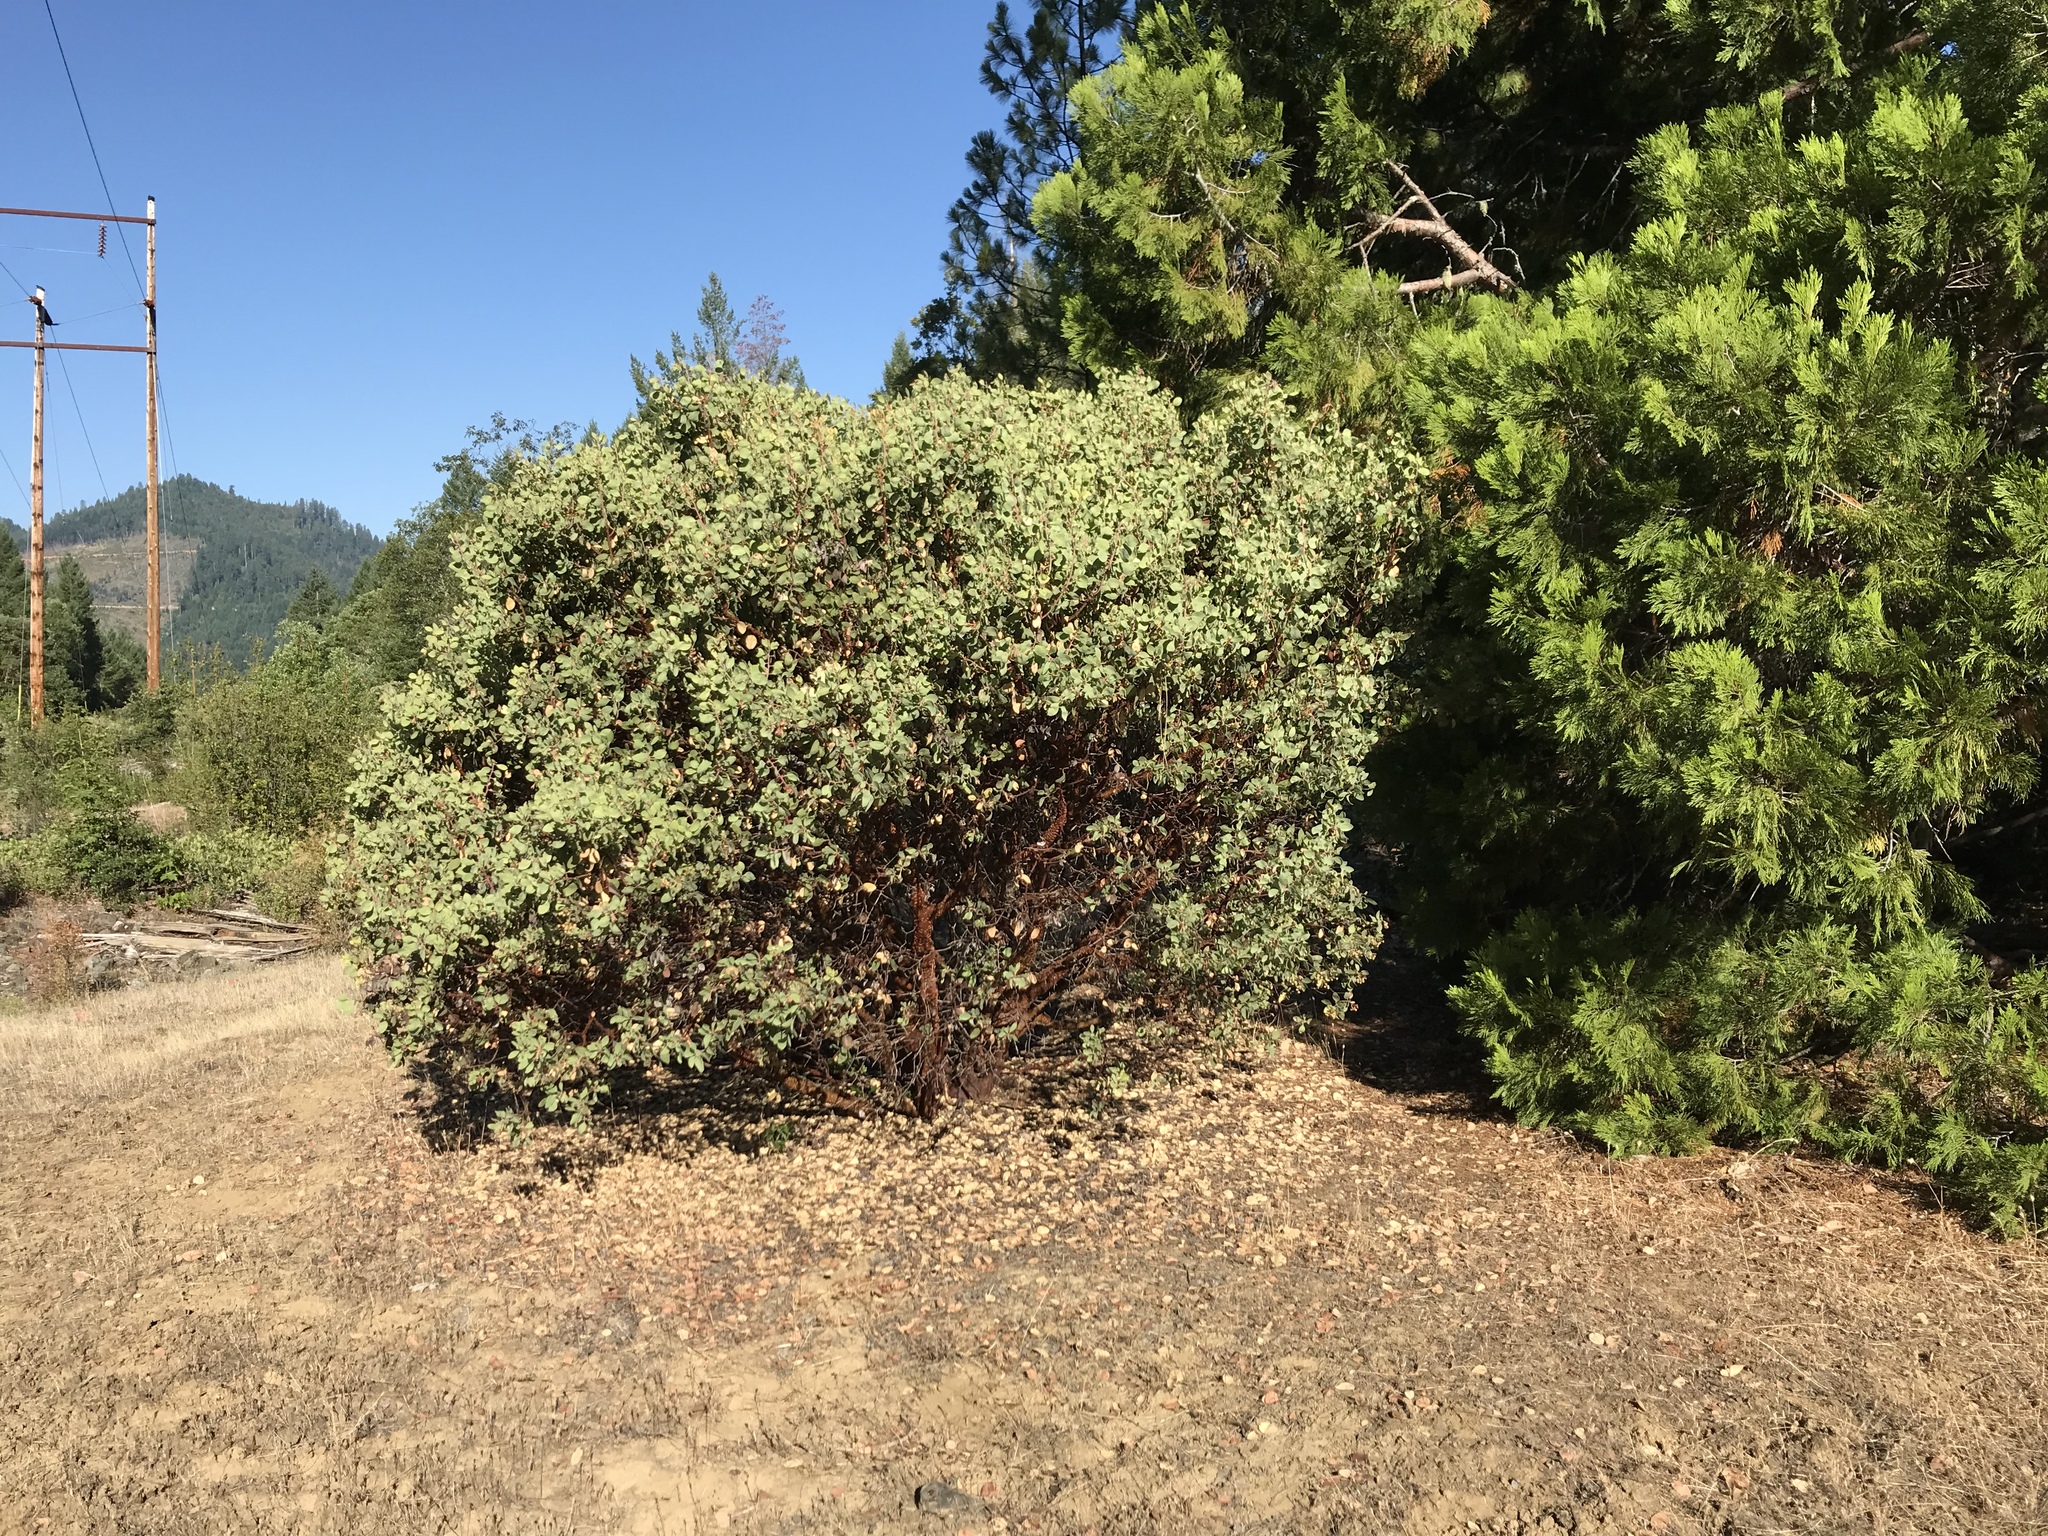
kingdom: Plantae
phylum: Tracheophyta
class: Magnoliopsida
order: Ericales
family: Ericaceae
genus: Arctostaphylos
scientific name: Arctostaphylos canescens
